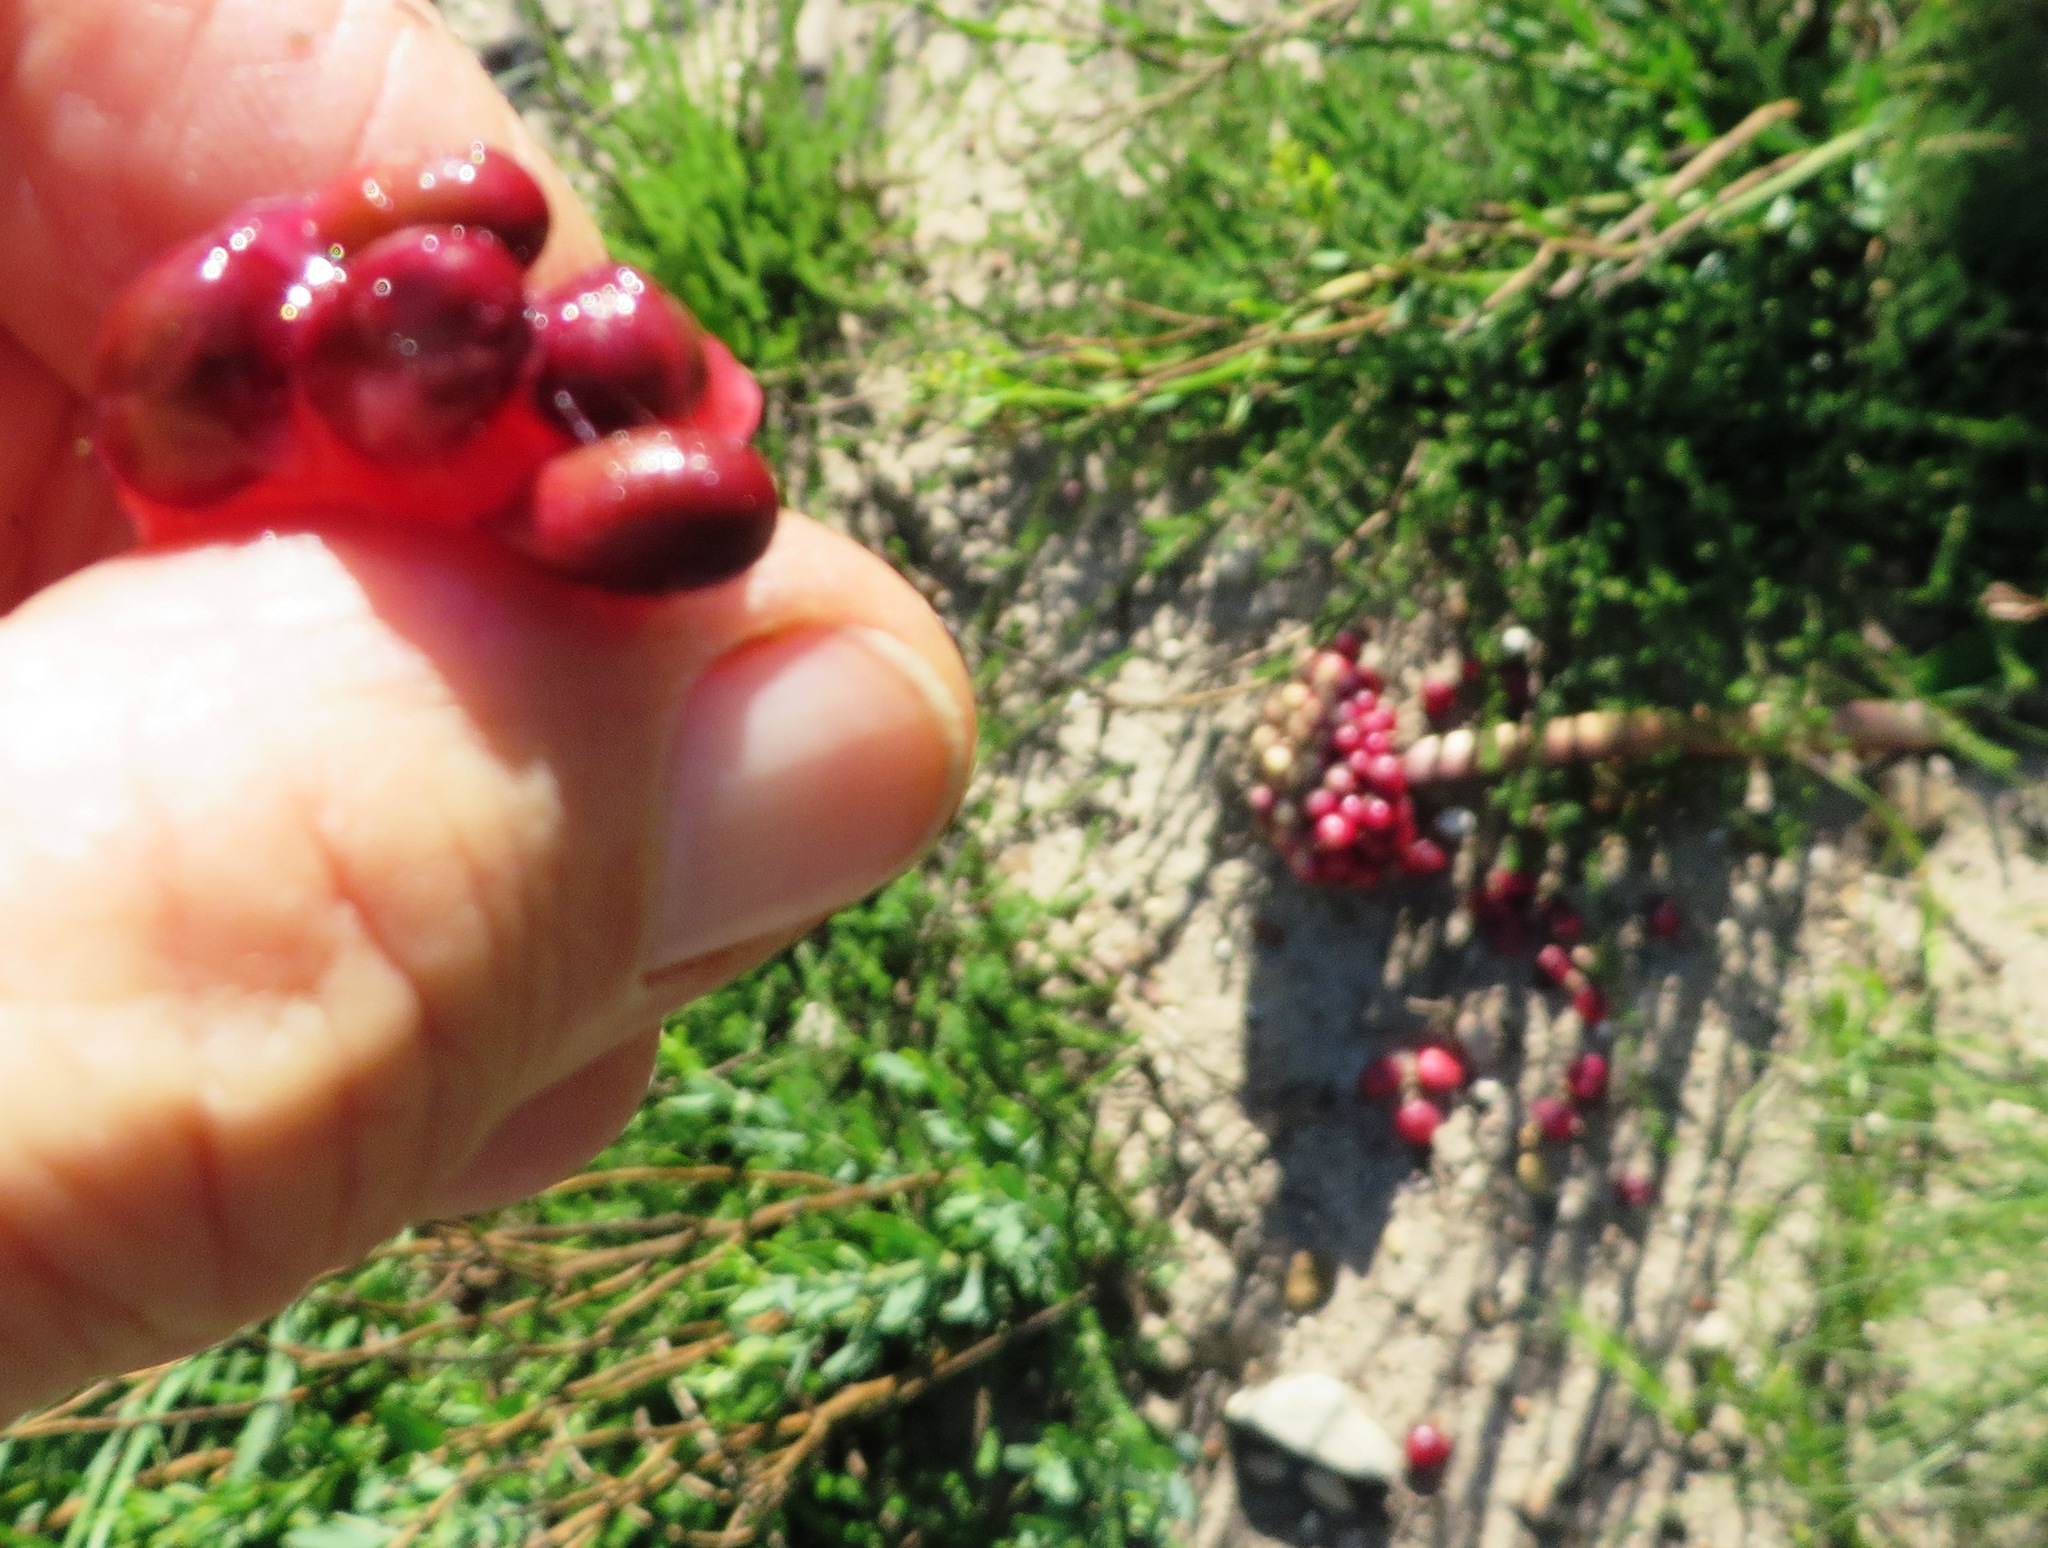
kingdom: Plantae
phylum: Tracheophyta
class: Liliopsida
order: Asparagales
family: Amaryllidaceae
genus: Haemanthus
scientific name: Haemanthus sanguineus
